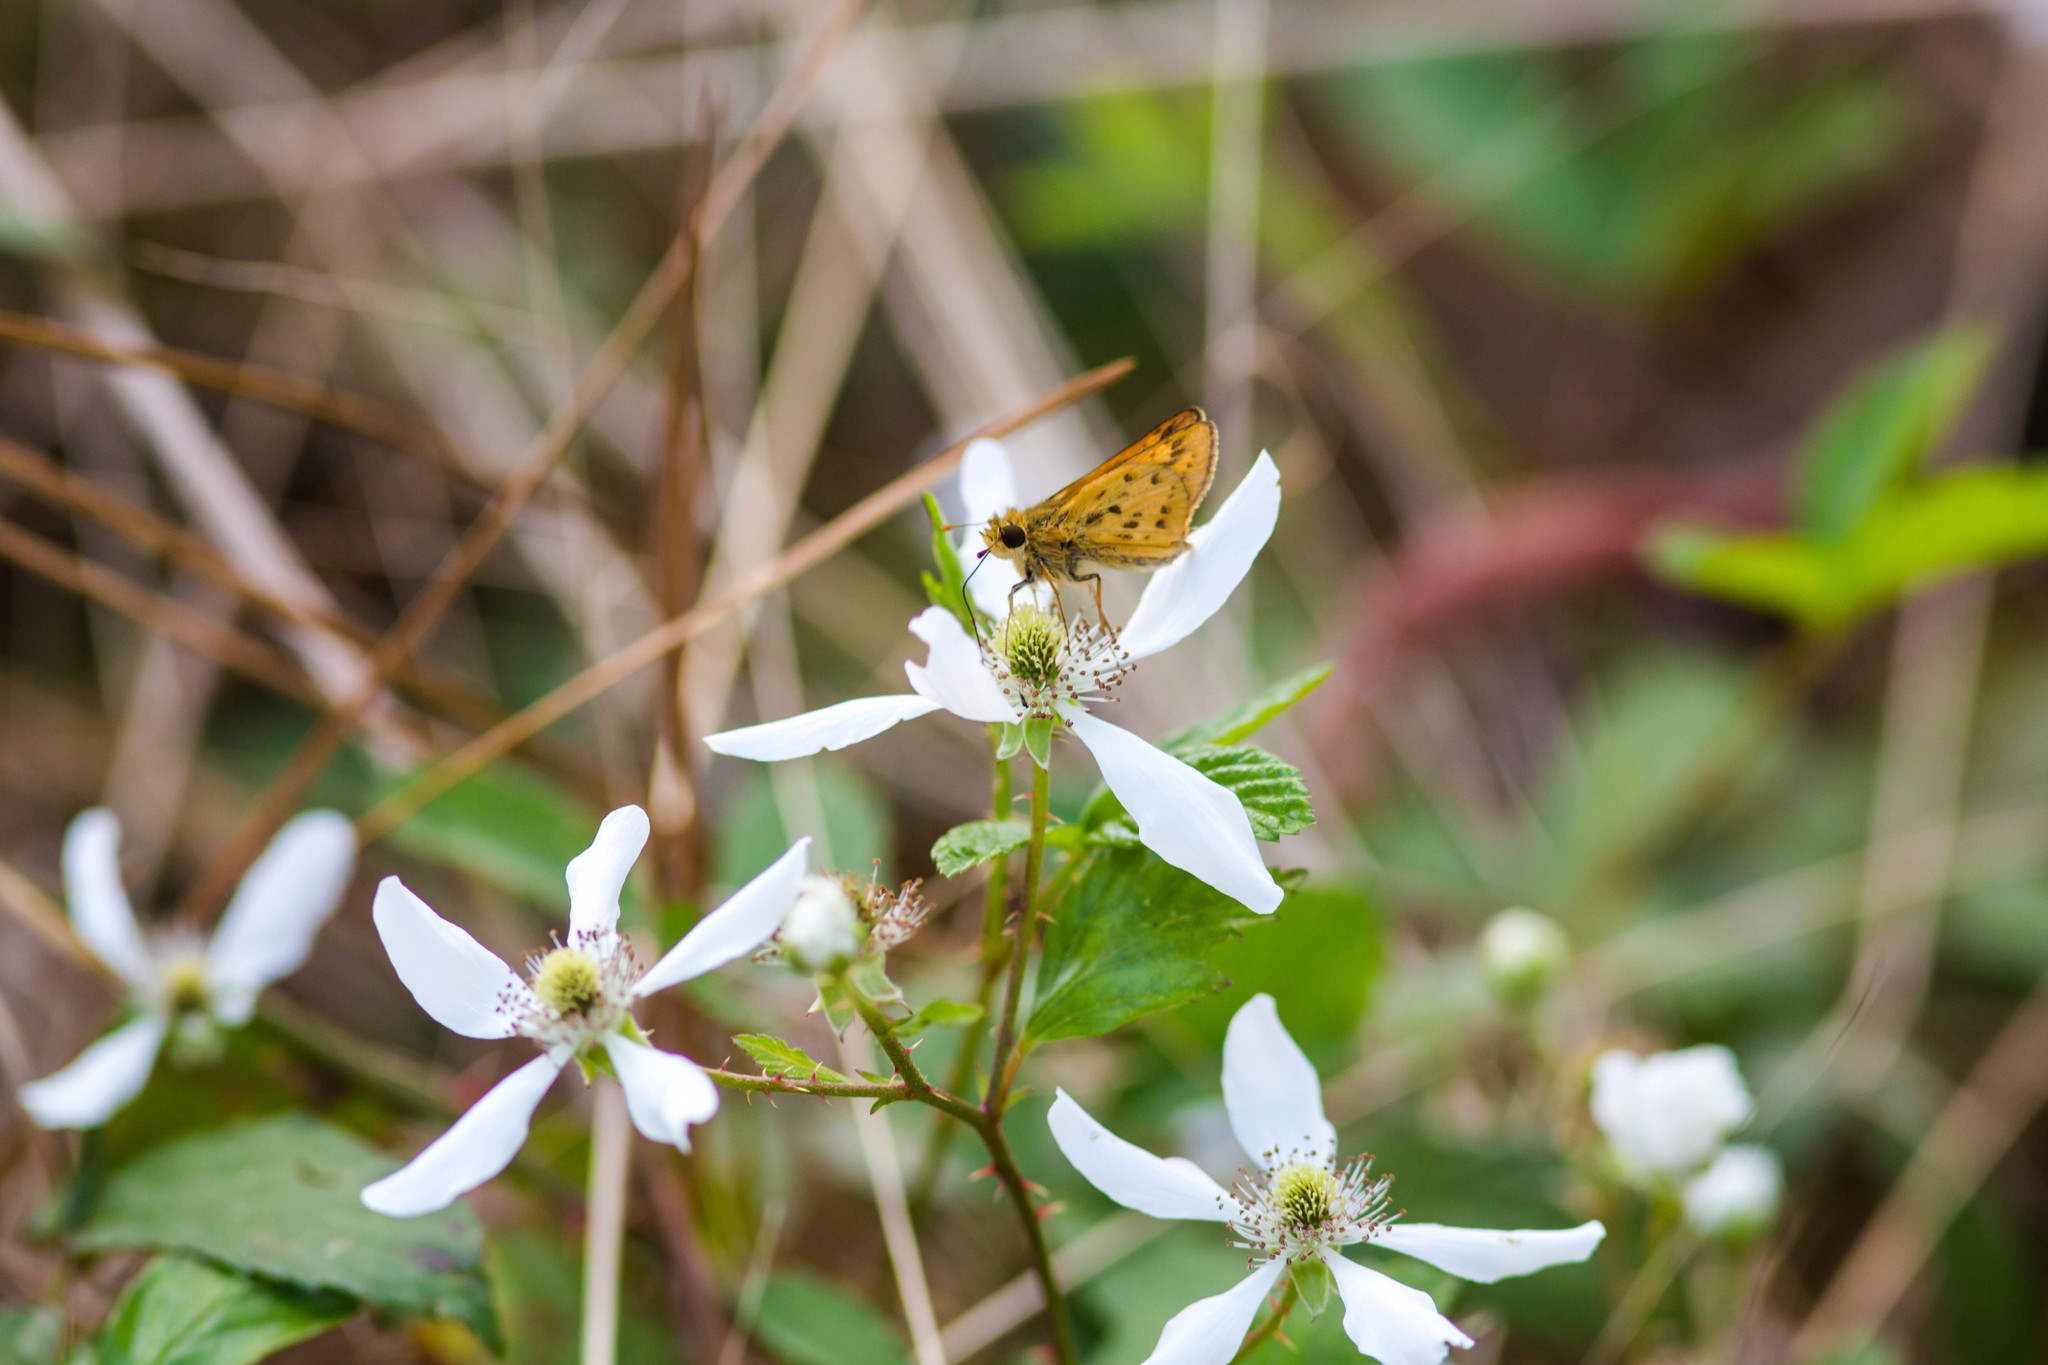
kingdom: Animalia
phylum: Arthropoda
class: Insecta
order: Lepidoptera
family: Hesperiidae
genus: Hylephila
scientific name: Hylephila phyleus
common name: Fiery skipper
